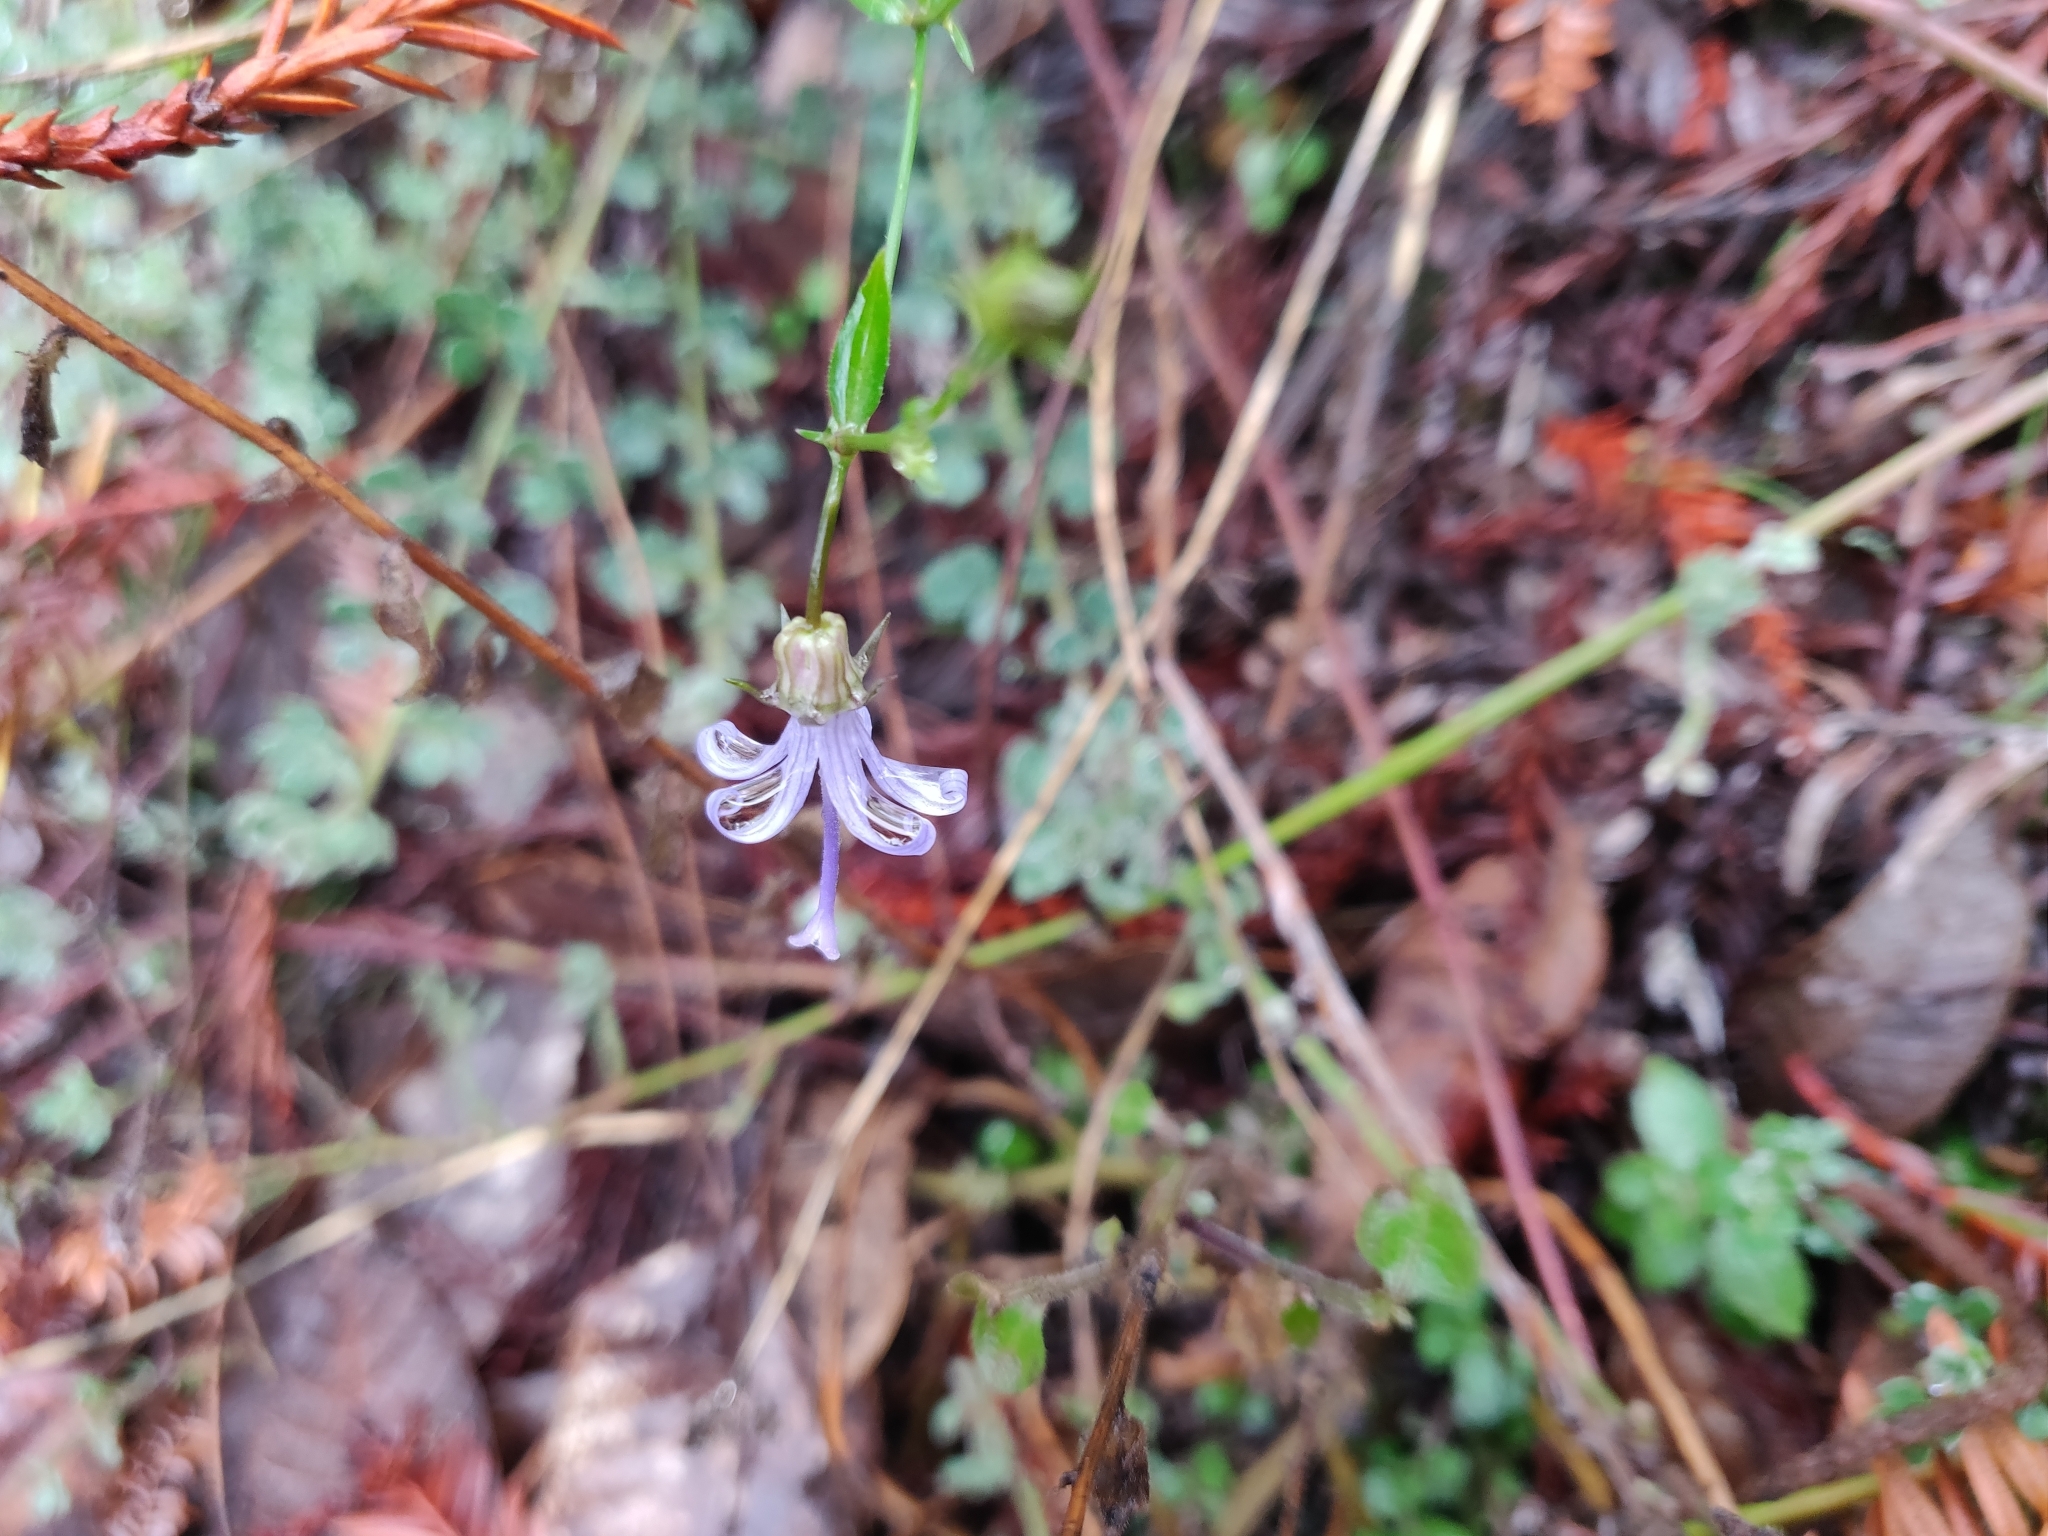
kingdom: Plantae
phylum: Tracheophyta
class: Magnoliopsida
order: Asterales
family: Campanulaceae
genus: Smithiastrum
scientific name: Smithiastrum prenanthoides
